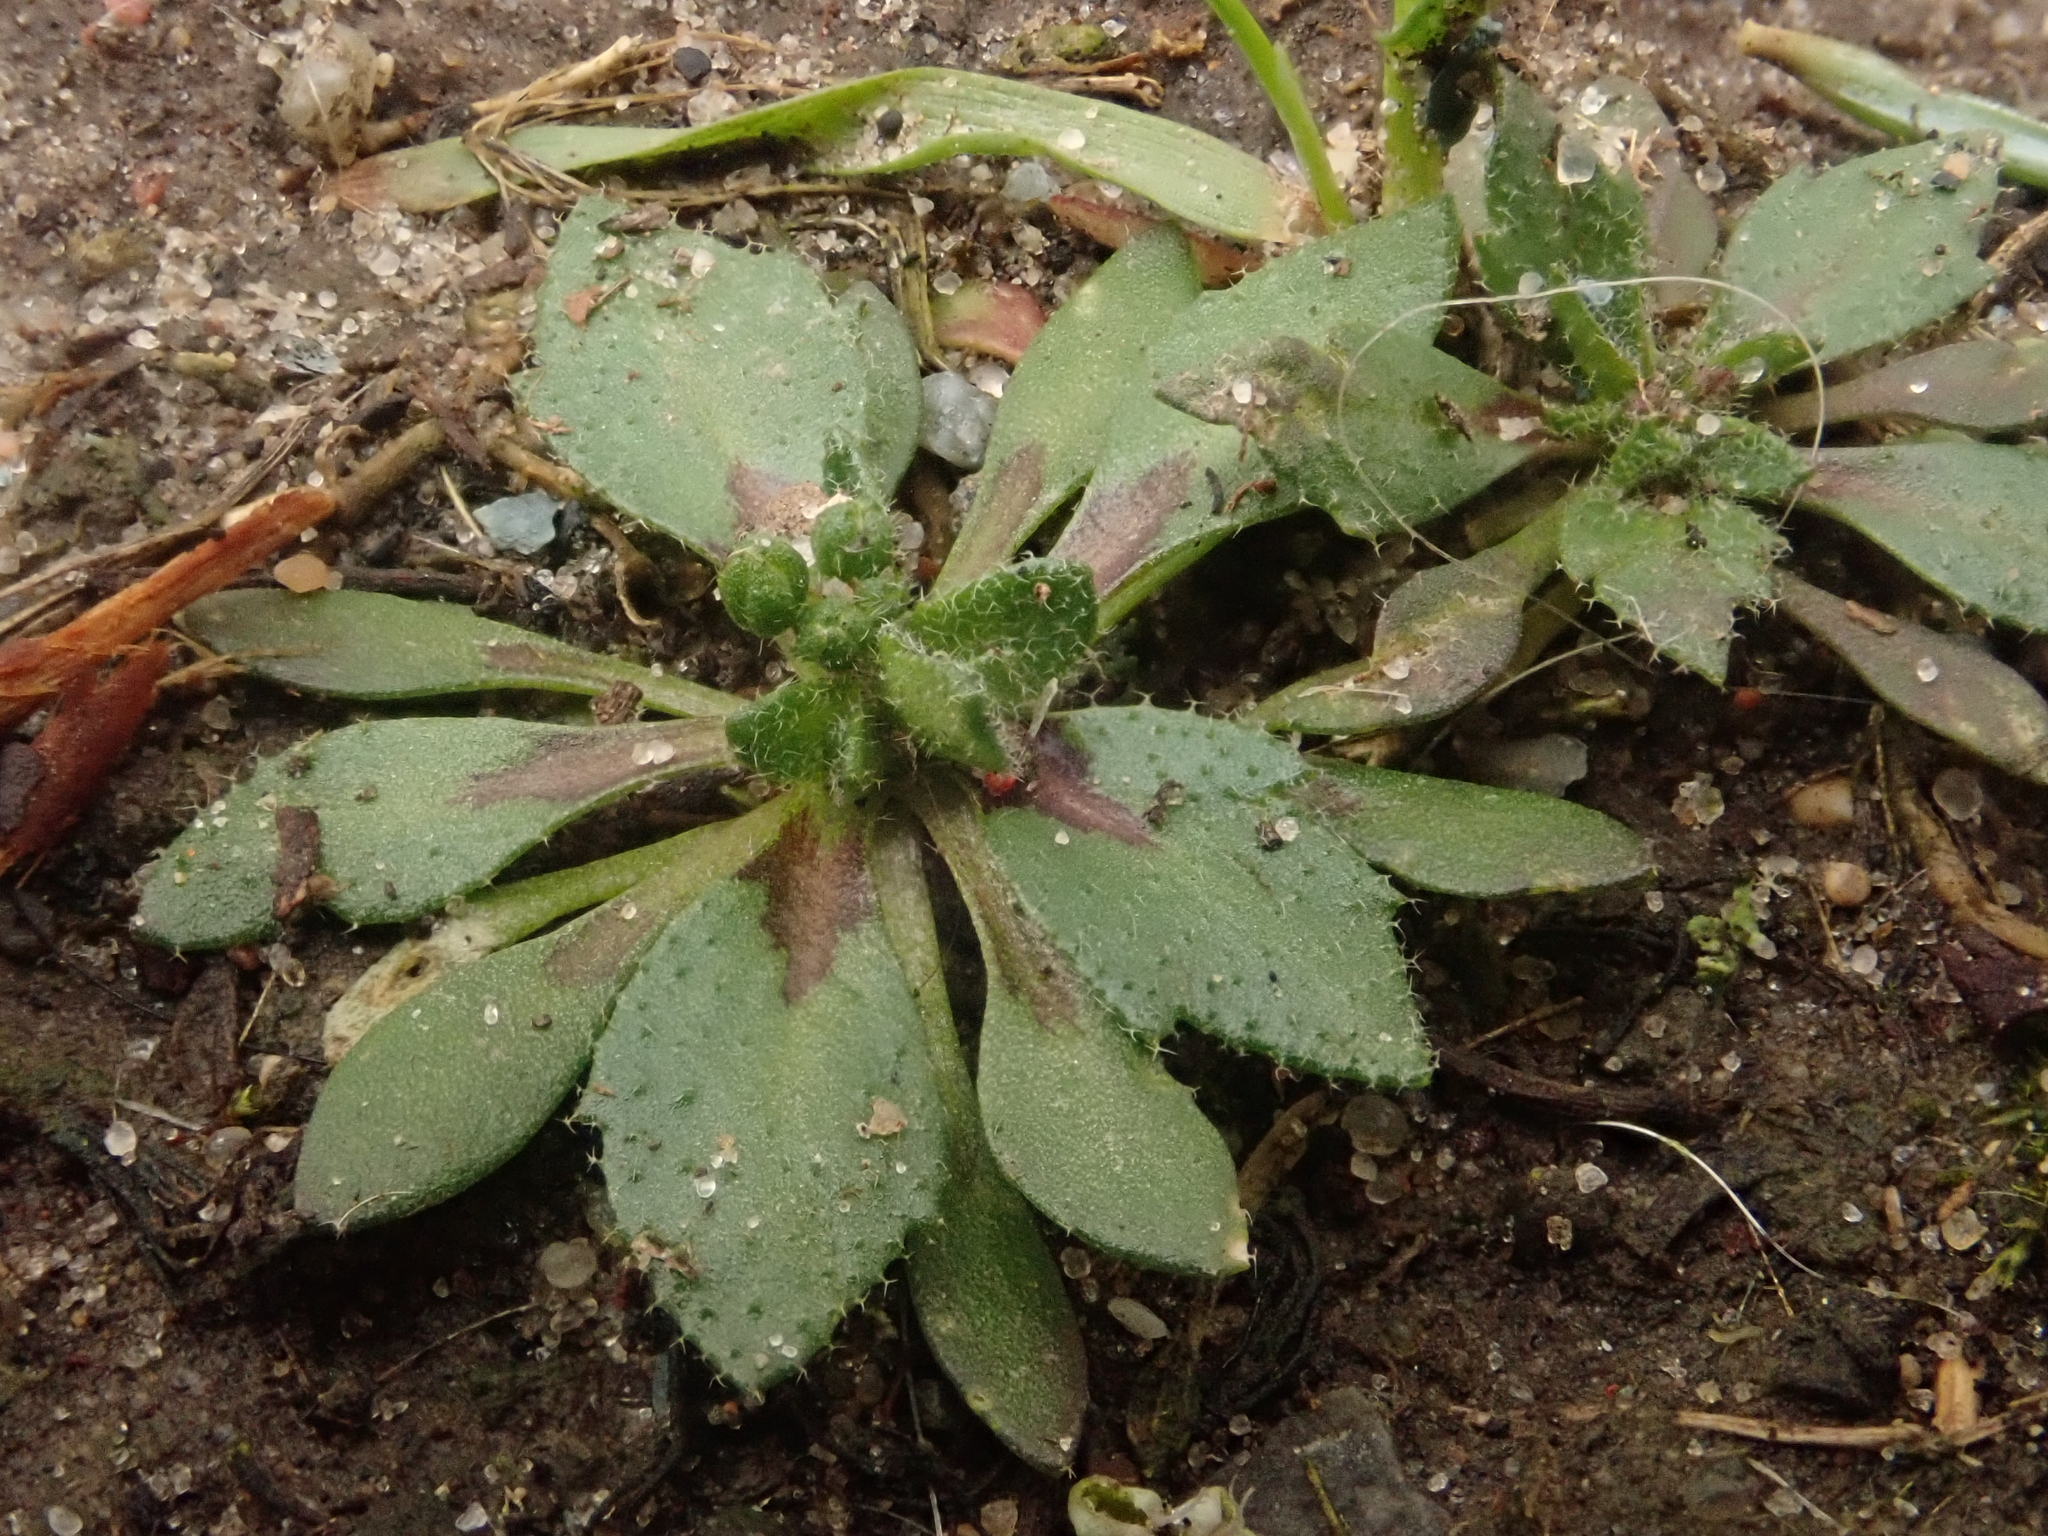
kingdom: Plantae
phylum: Tracheophyta
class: Magnoliopsida
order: Brassicales
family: Brassicaceae
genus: Draba
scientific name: Draba verna
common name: Spring draba
